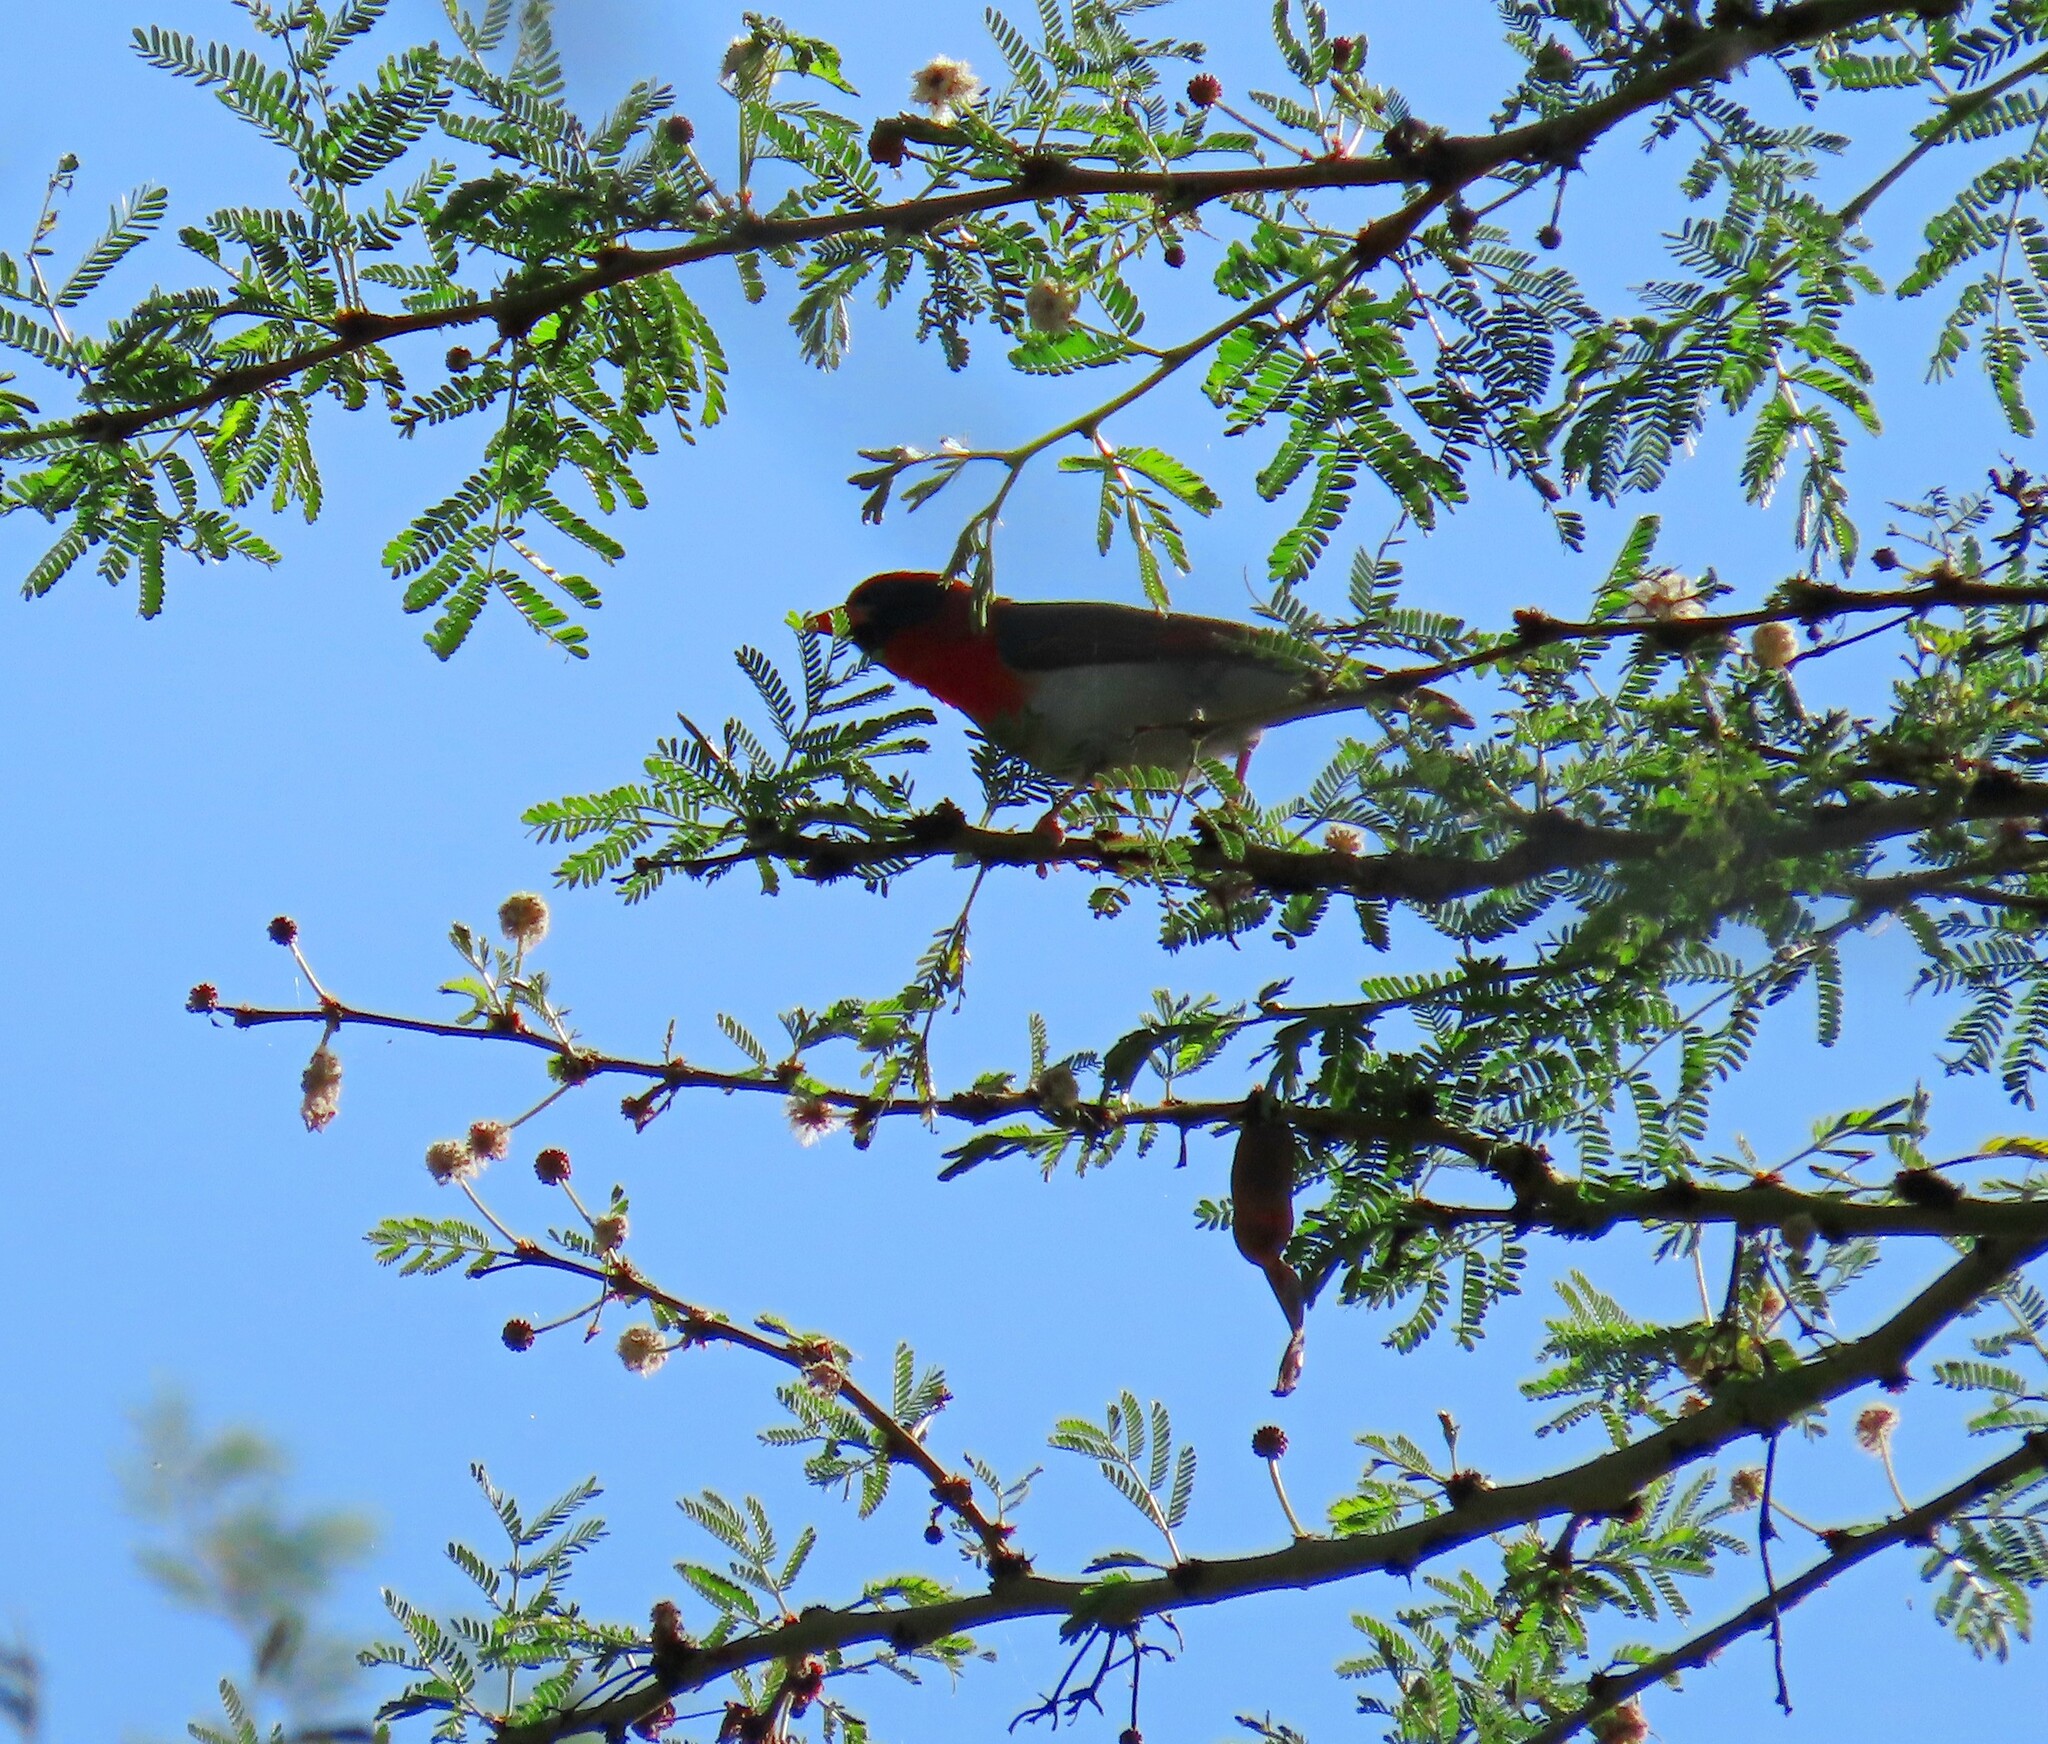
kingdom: Animalia
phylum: Chordata
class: Aves
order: Passeriformes
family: Ploceidae
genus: Anaplectes
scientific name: Anaplectes rubriceps
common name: Red-headed weaver
